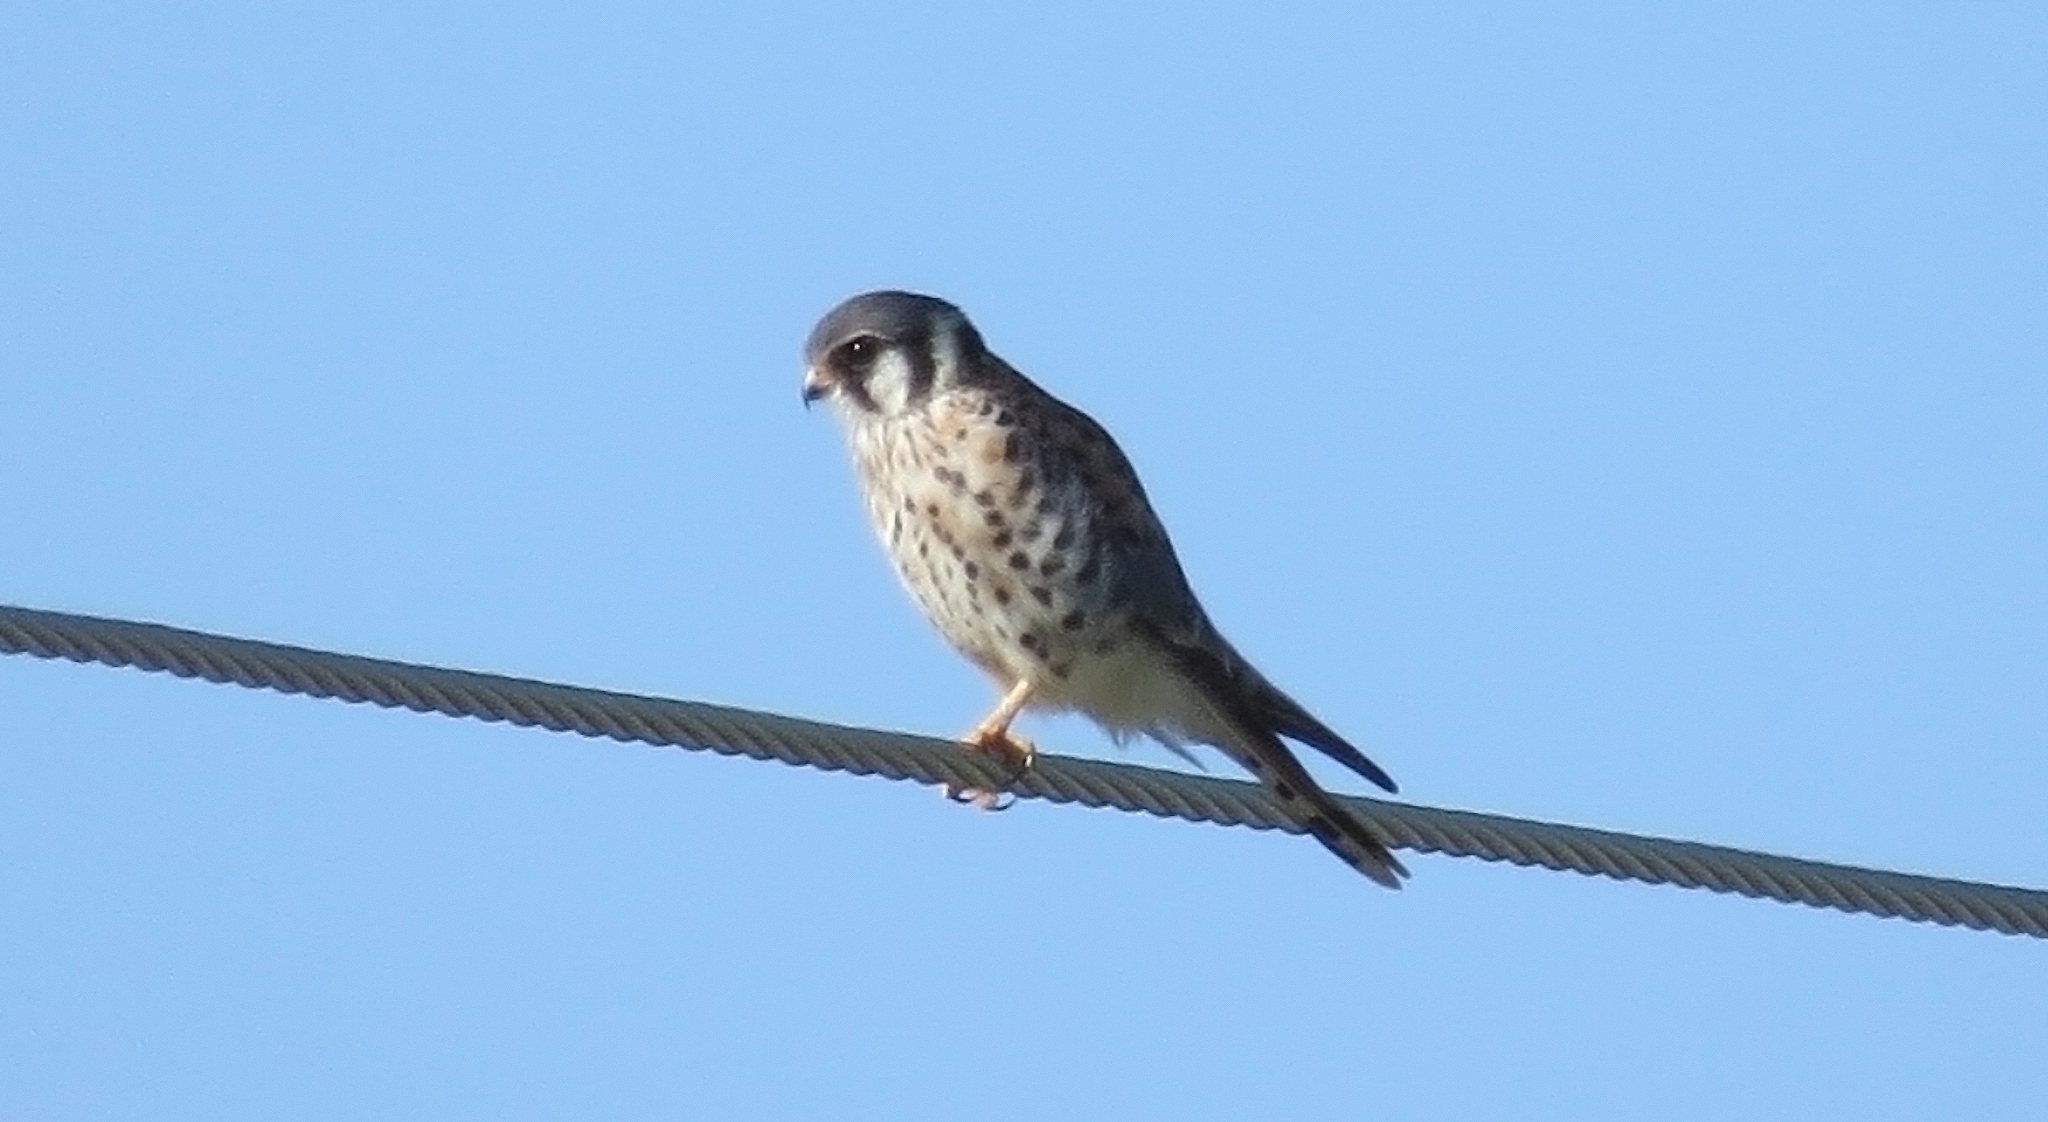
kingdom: Animalia
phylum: Chordata
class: Aves
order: Falconiformes
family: Falconidae
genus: Falco
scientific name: Falco sparverius
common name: American kestrel
